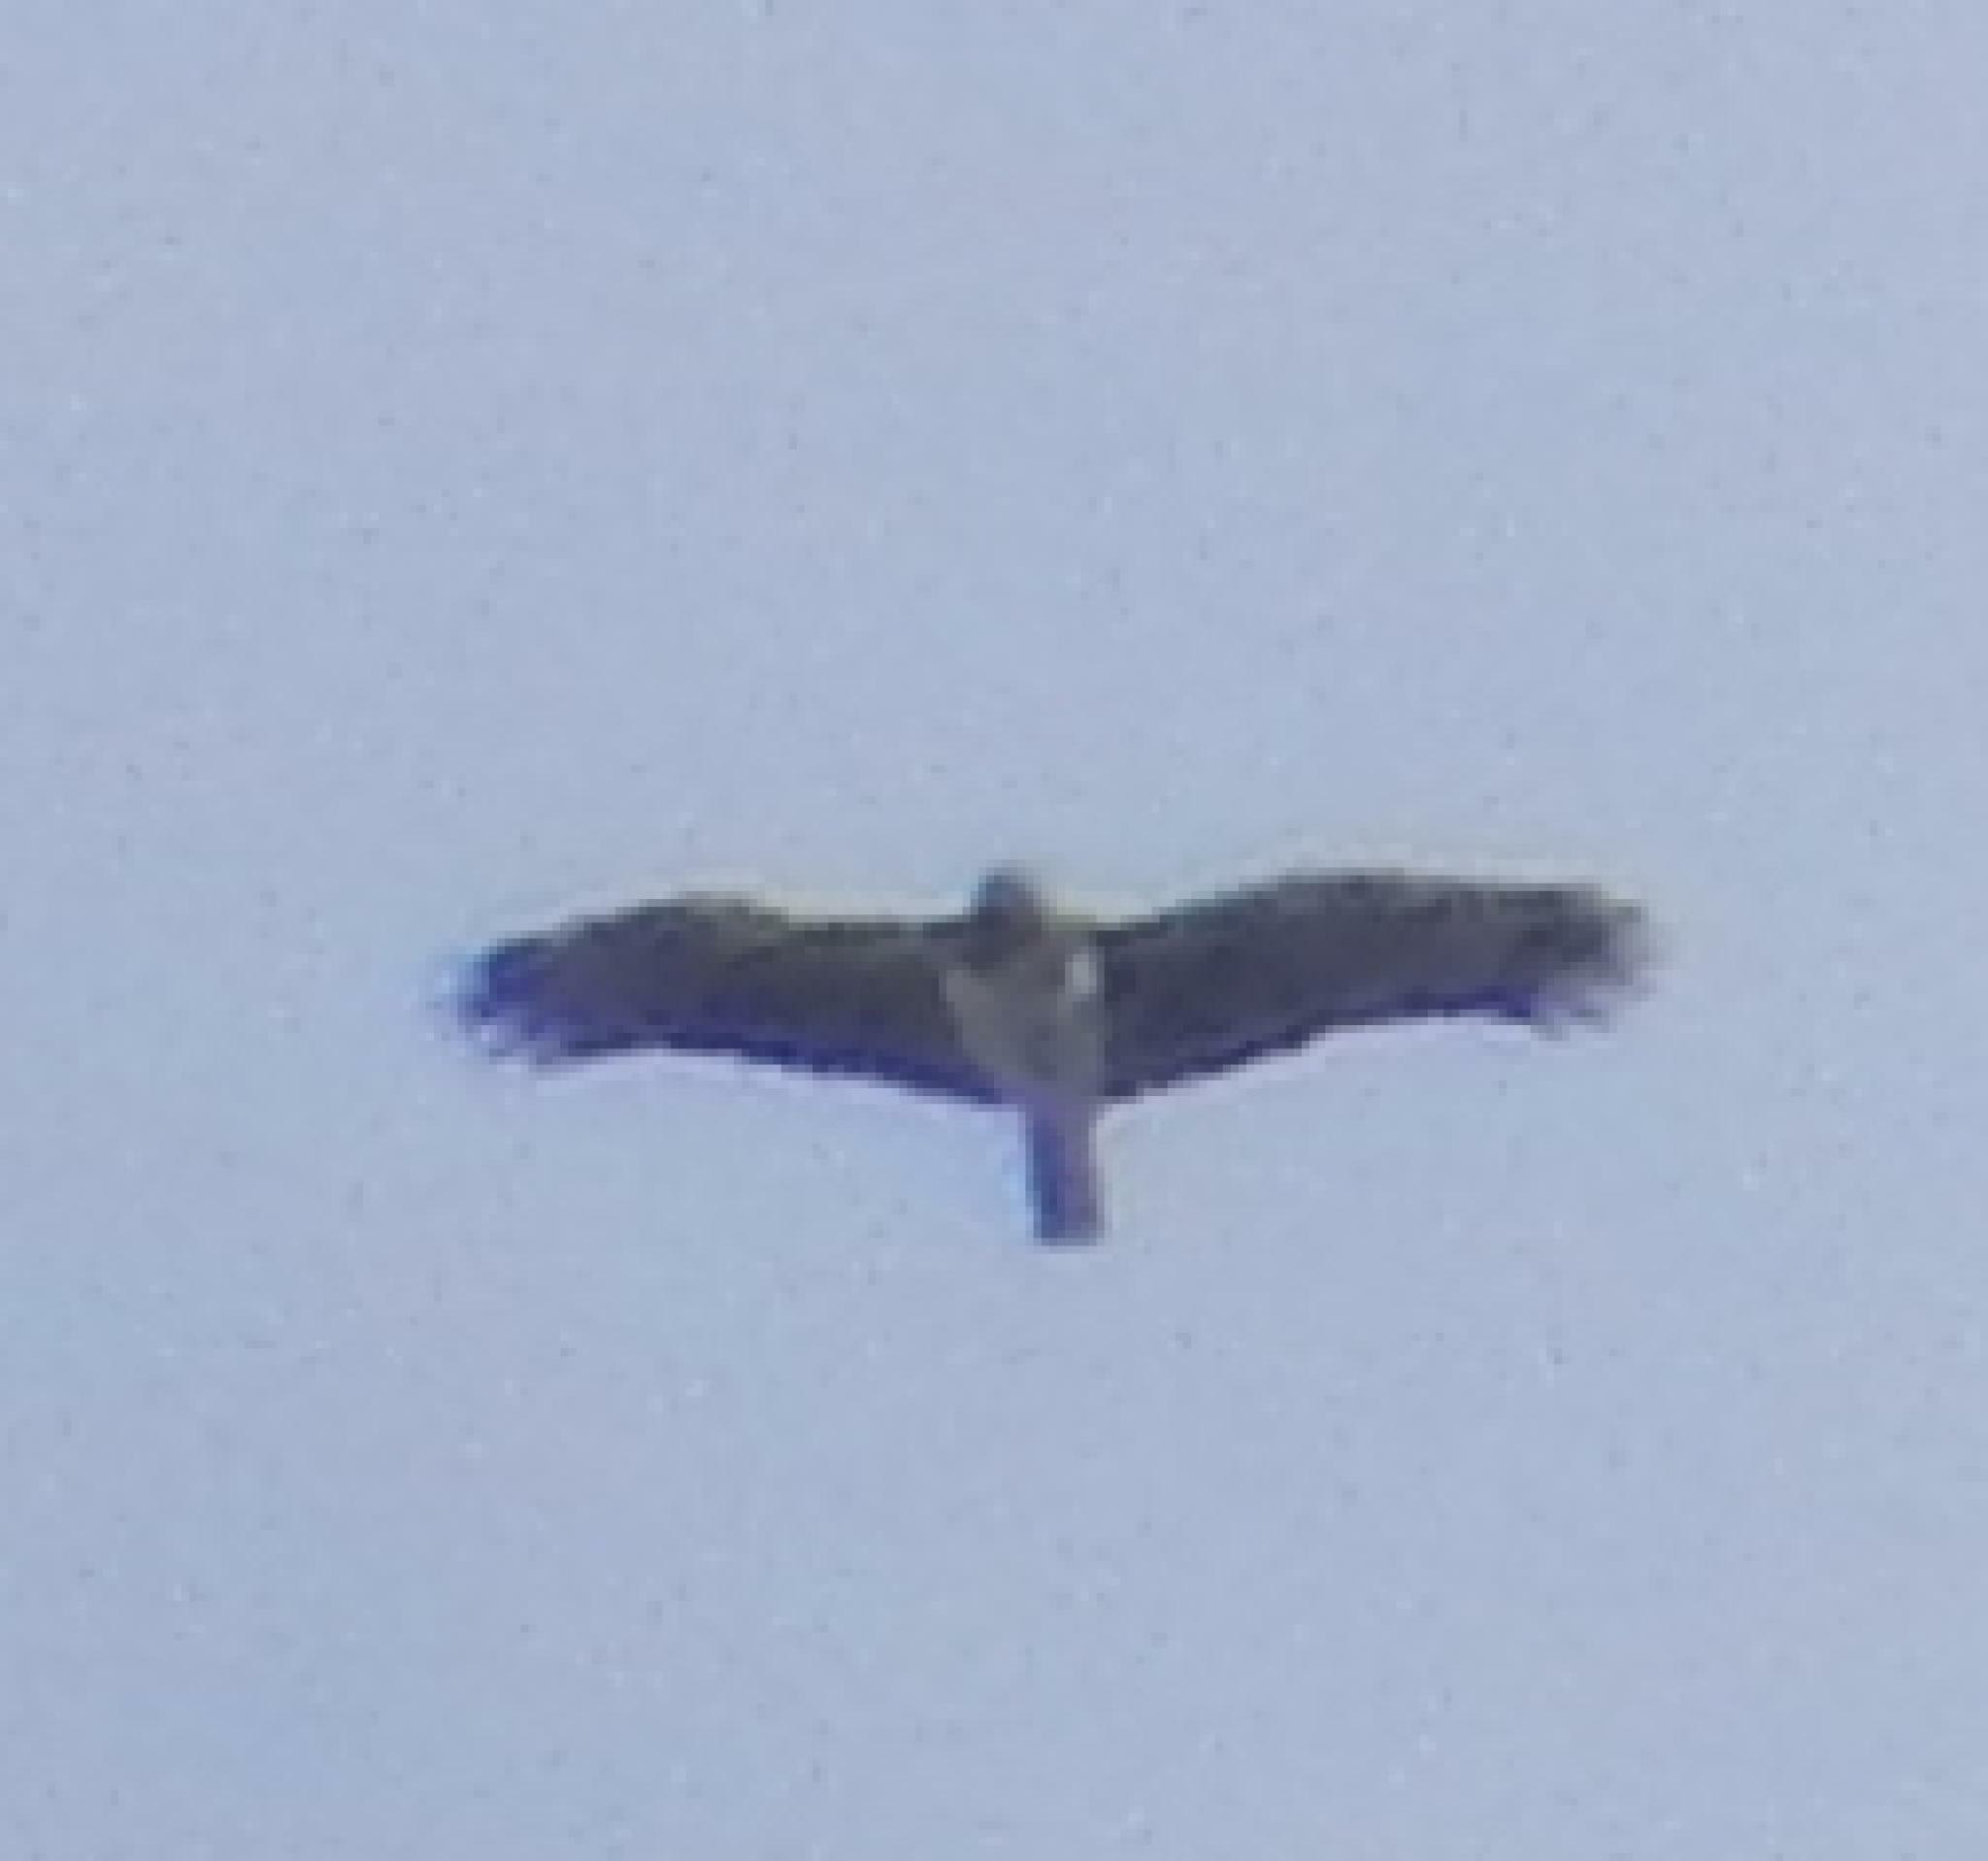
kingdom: Animalia
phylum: Chordata
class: Aves
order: Accipitriformes
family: Accipitridae
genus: Polemaetus
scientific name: Polemaetus bellicosus
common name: Martial eagle
